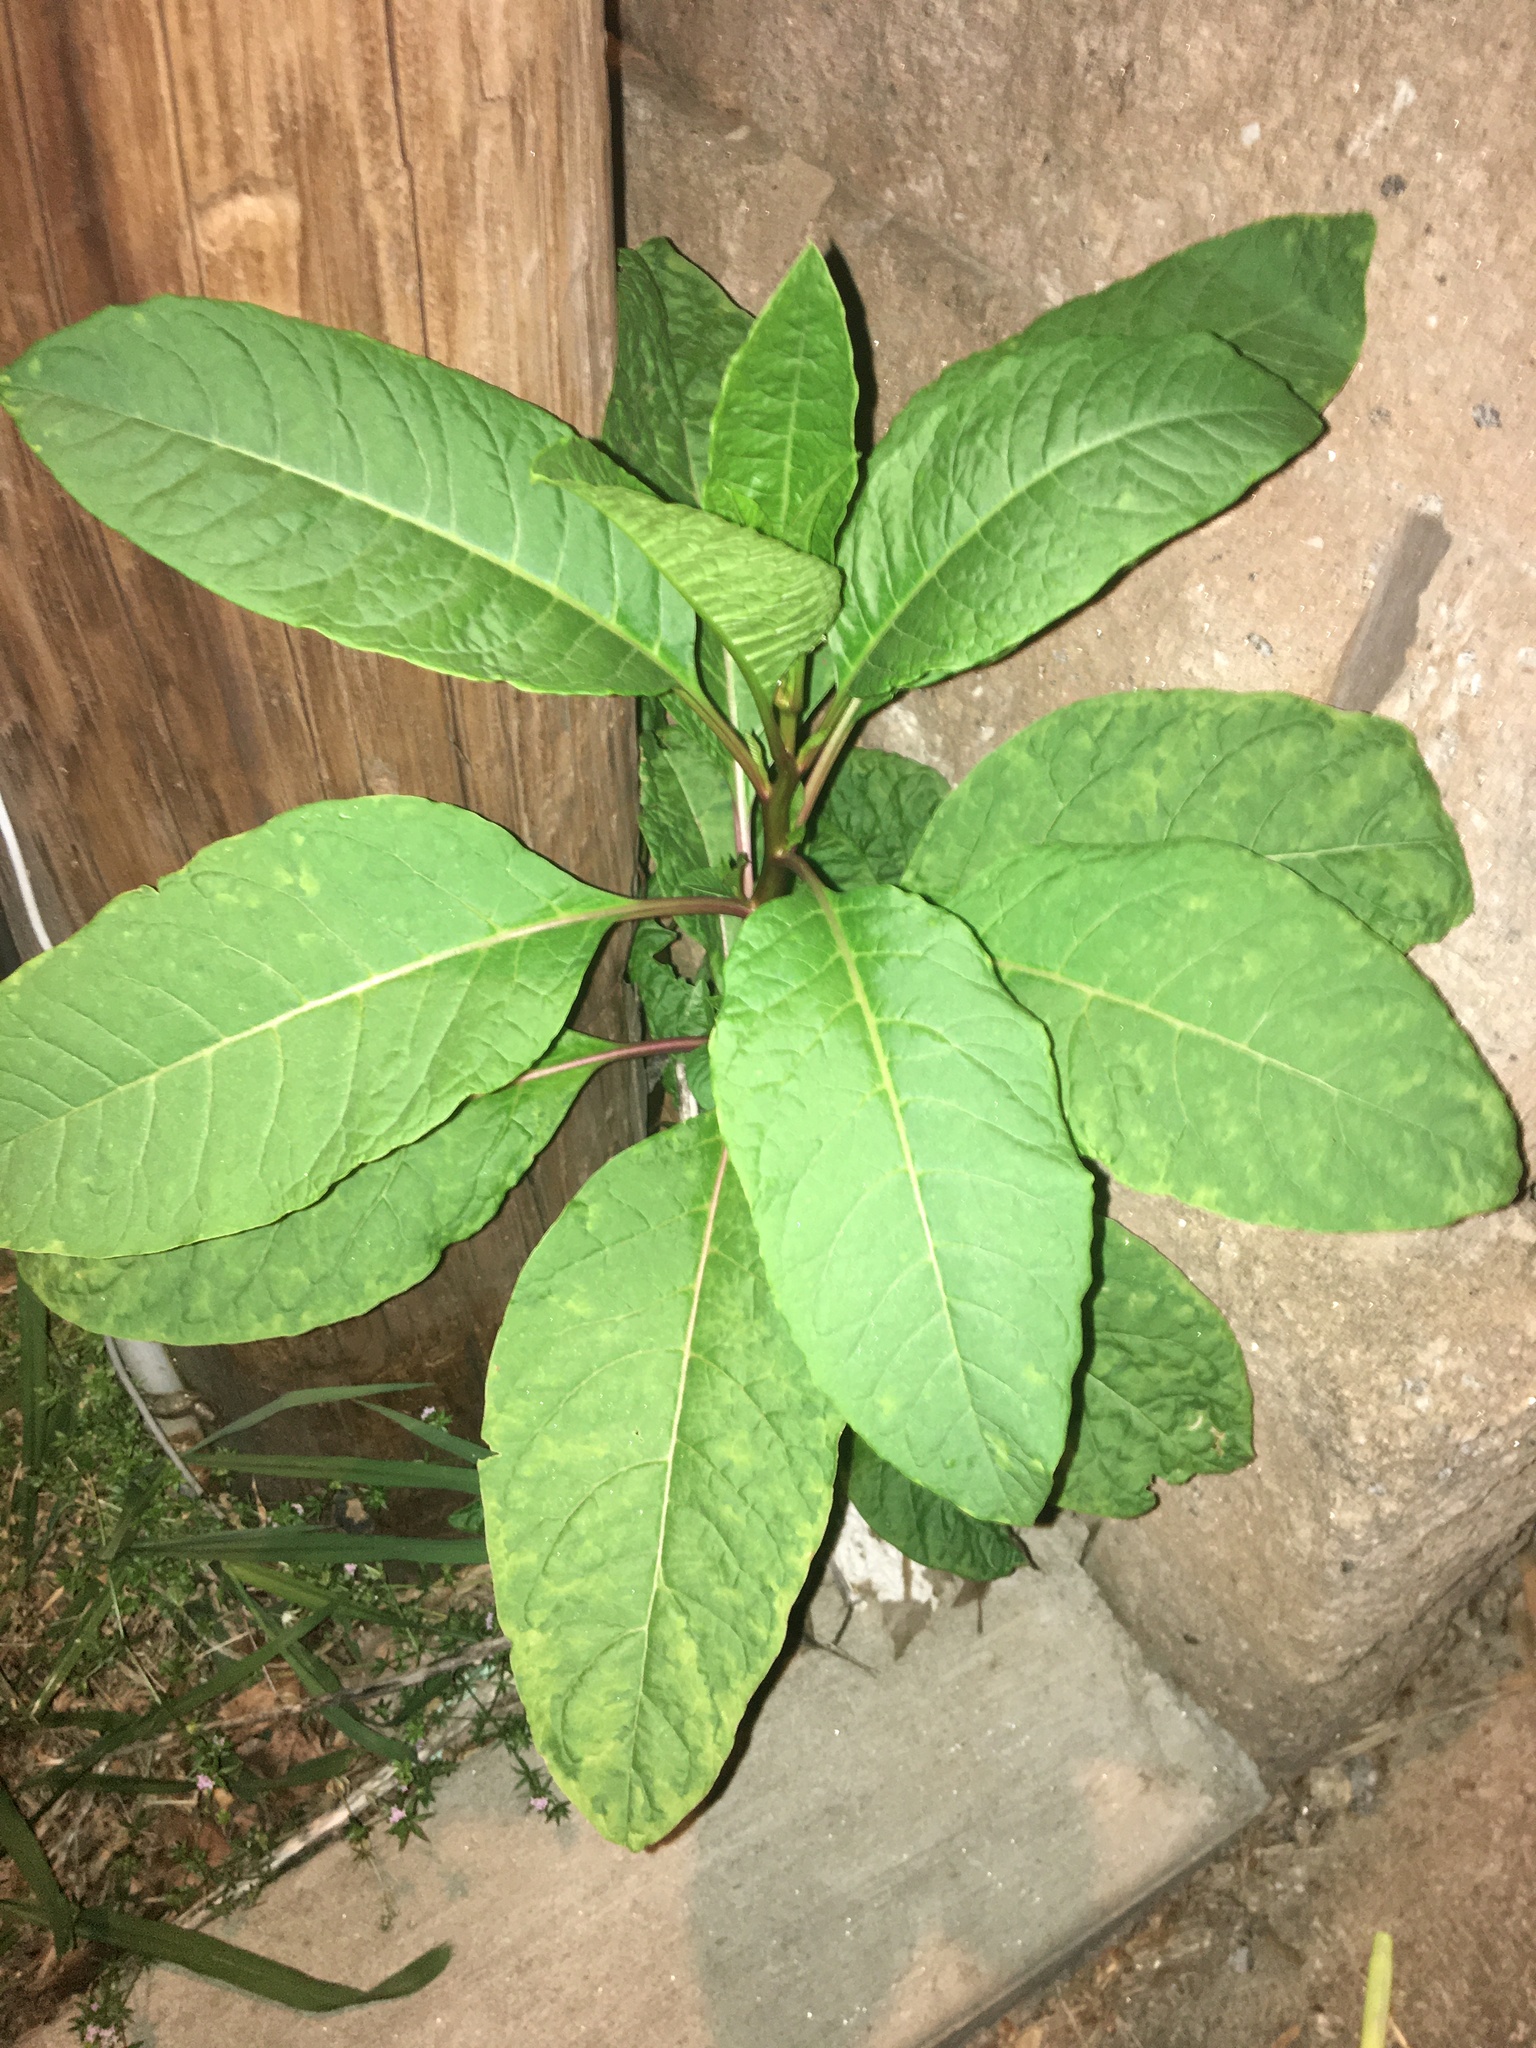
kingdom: Plantae
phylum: Tracheophyta
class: Magnoliopsida
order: Caryophyllales
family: Phytolaccaceae
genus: Phytolacca
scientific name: Phytolacca americana
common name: American pokeweed
